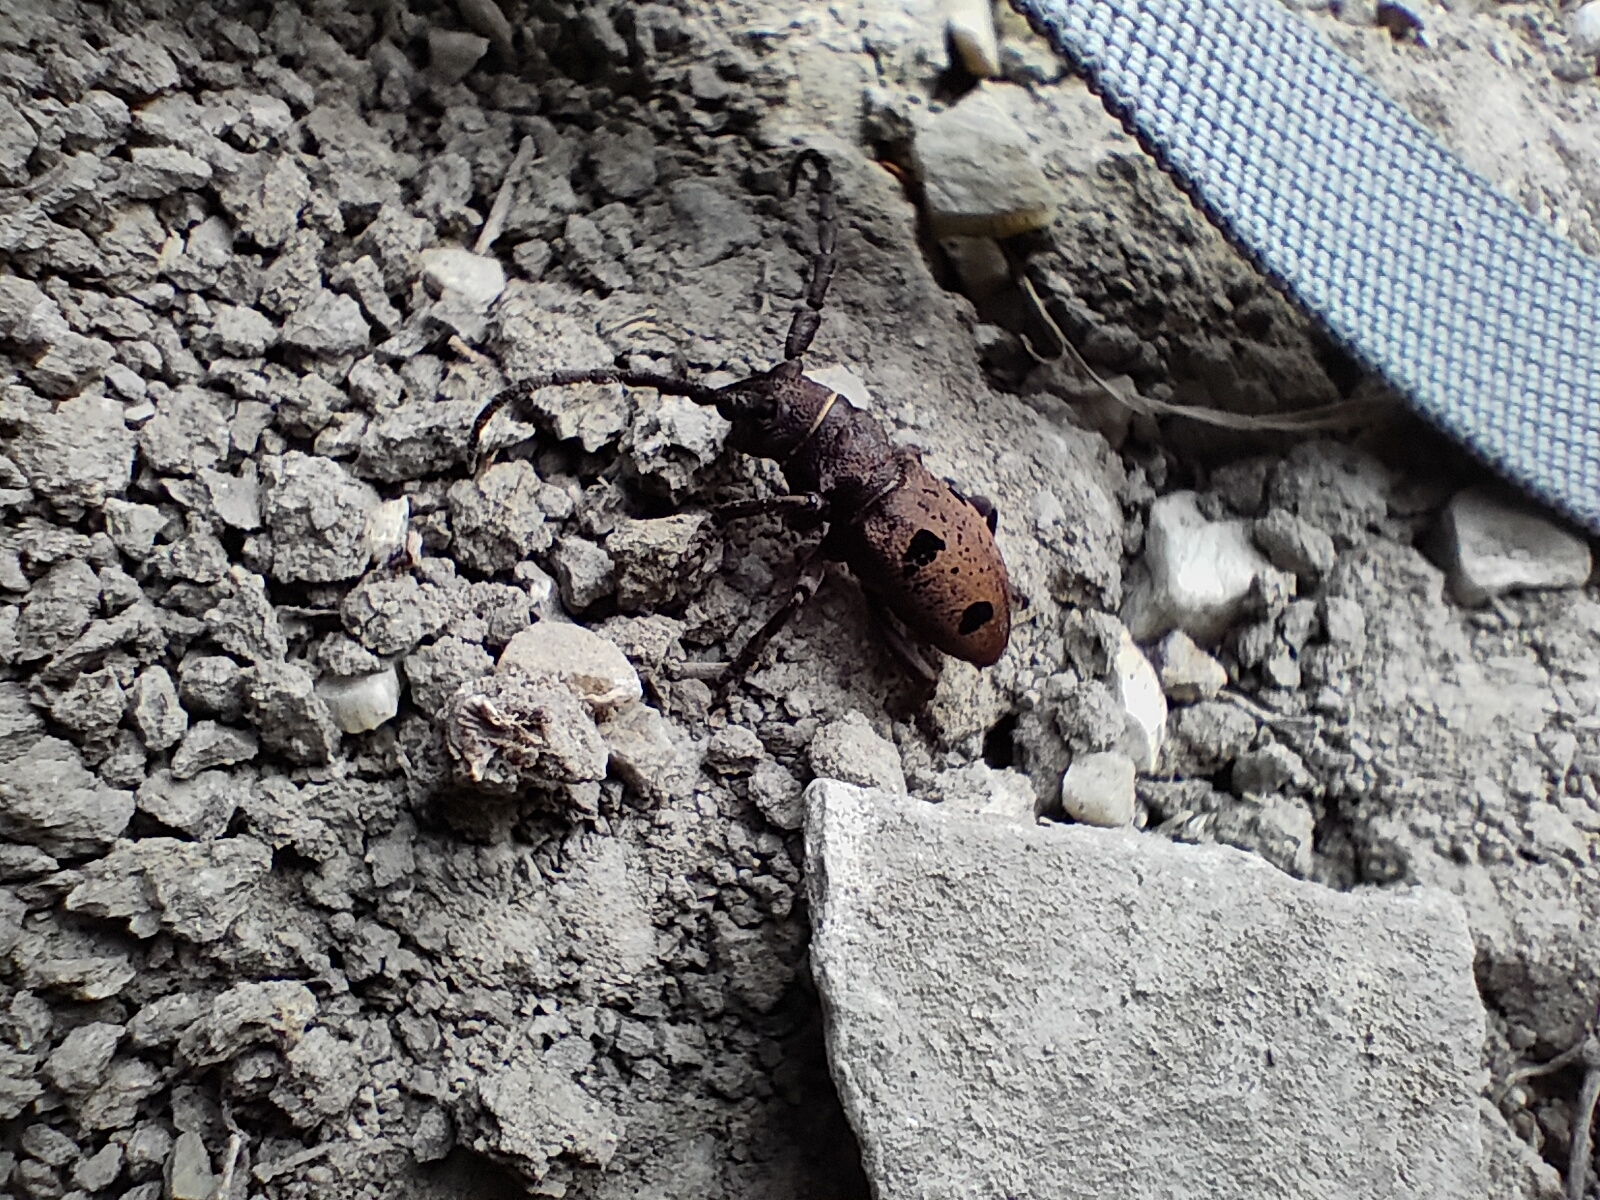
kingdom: Animalia
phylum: Arthropoda
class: Insecta
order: Coleoptera
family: Cerambycidae
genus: Herophila
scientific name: Herophila tristis
